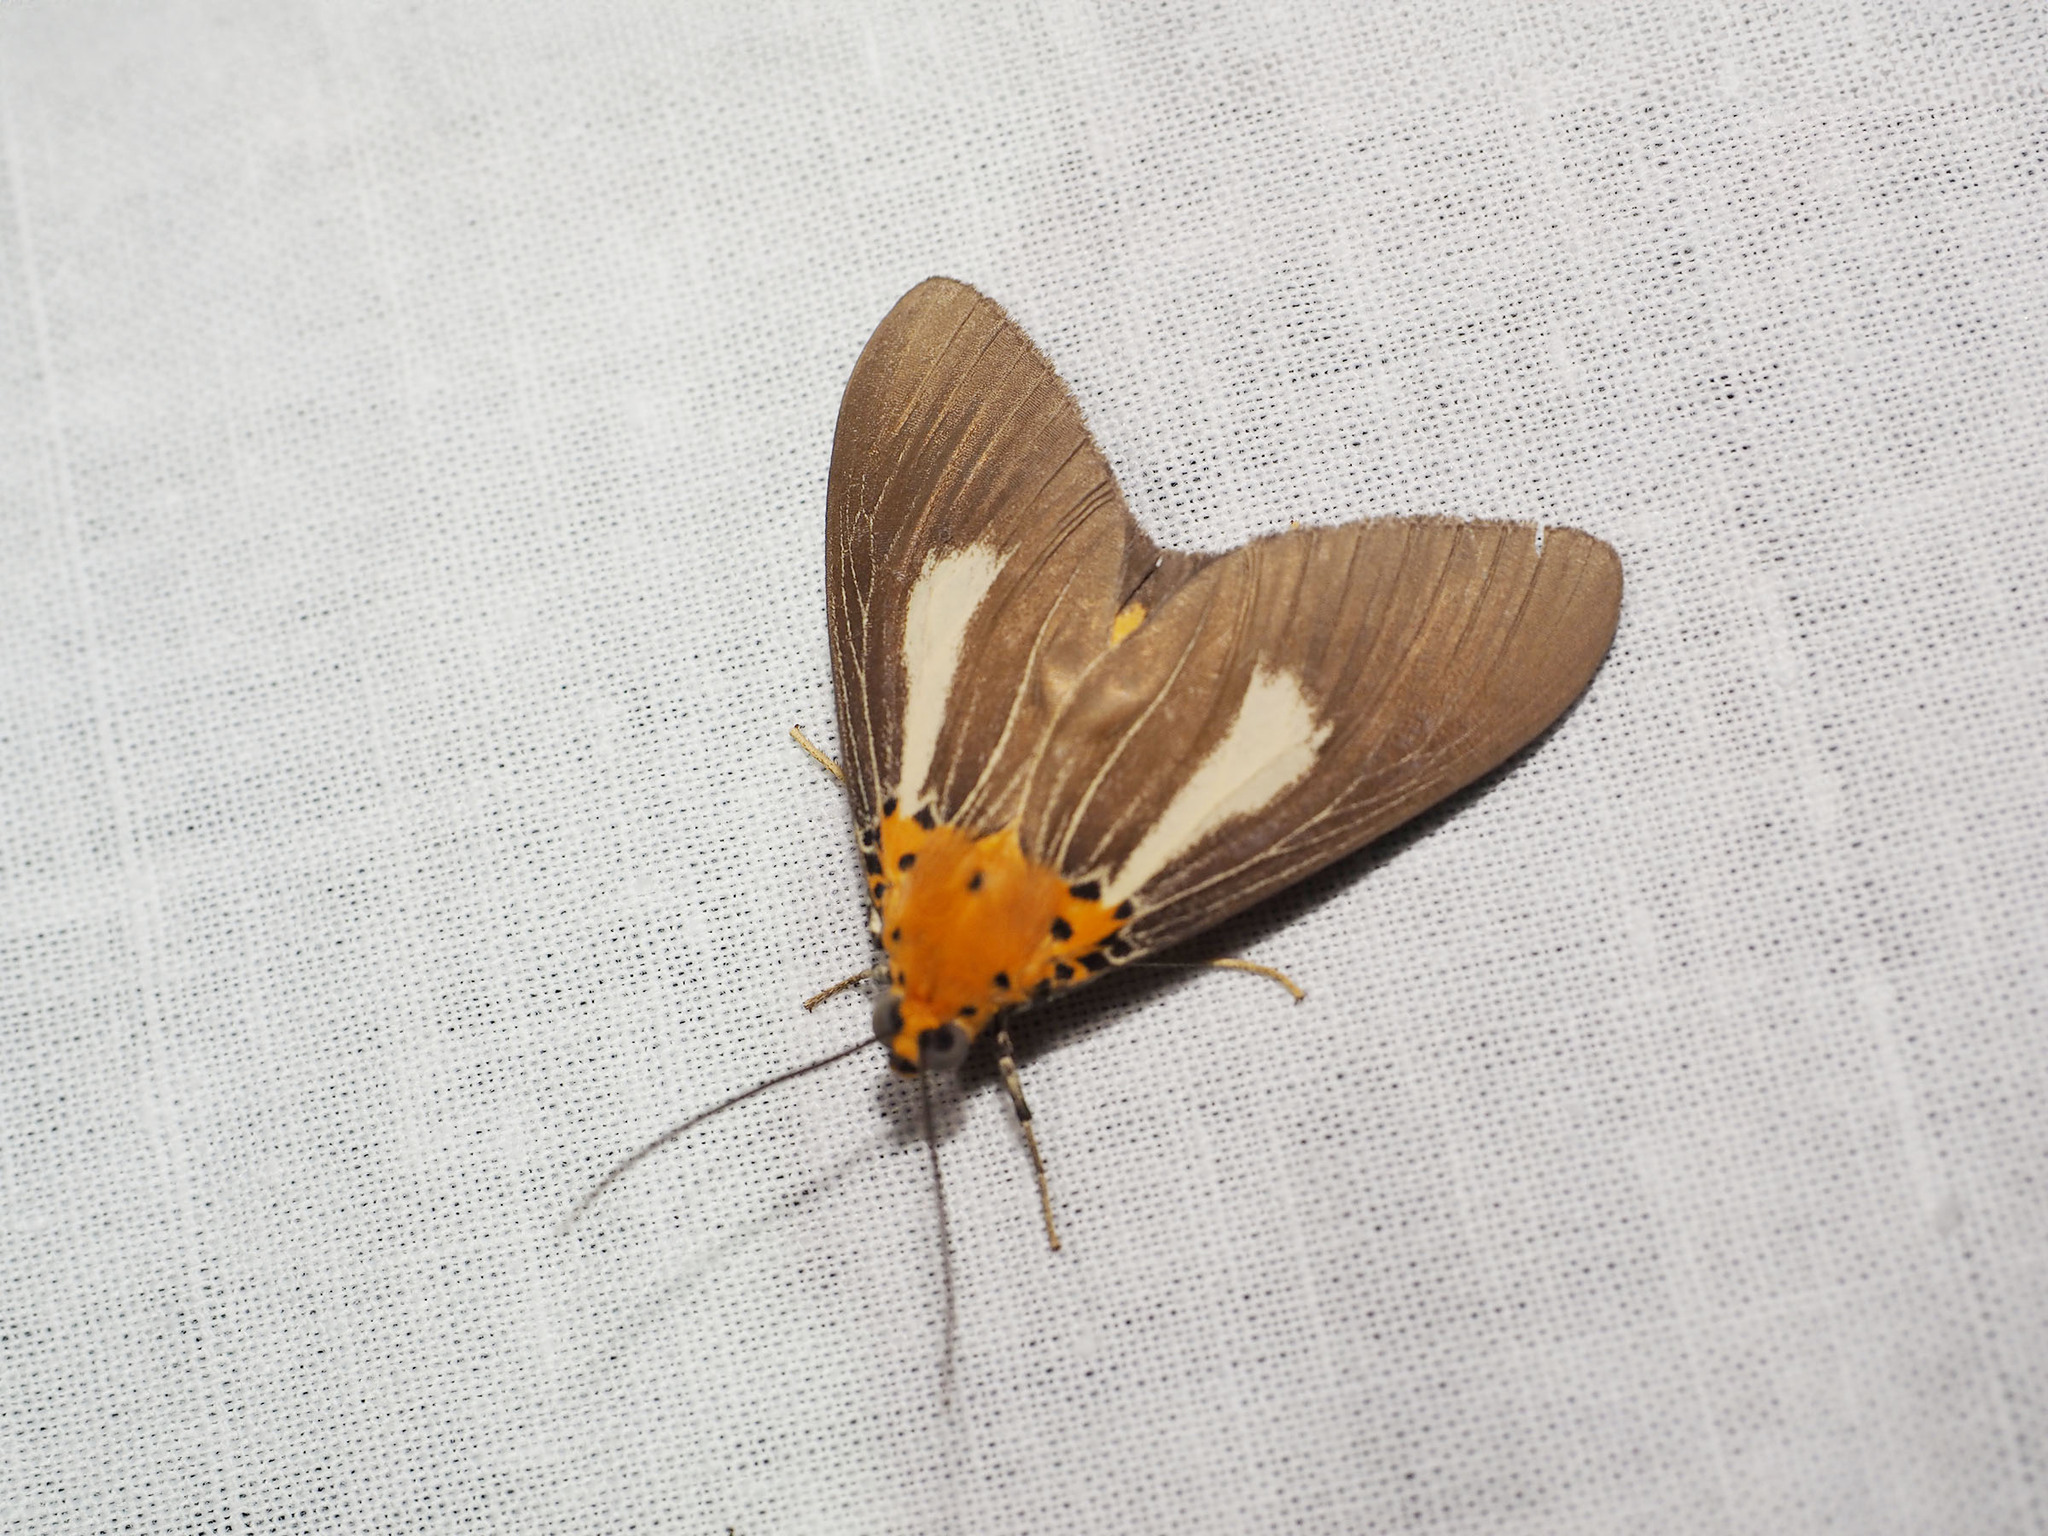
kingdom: Animalia
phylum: Arthropoda
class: Insecta
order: Lepidoptera
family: Erebidae
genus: Asota
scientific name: Asota heliconia
